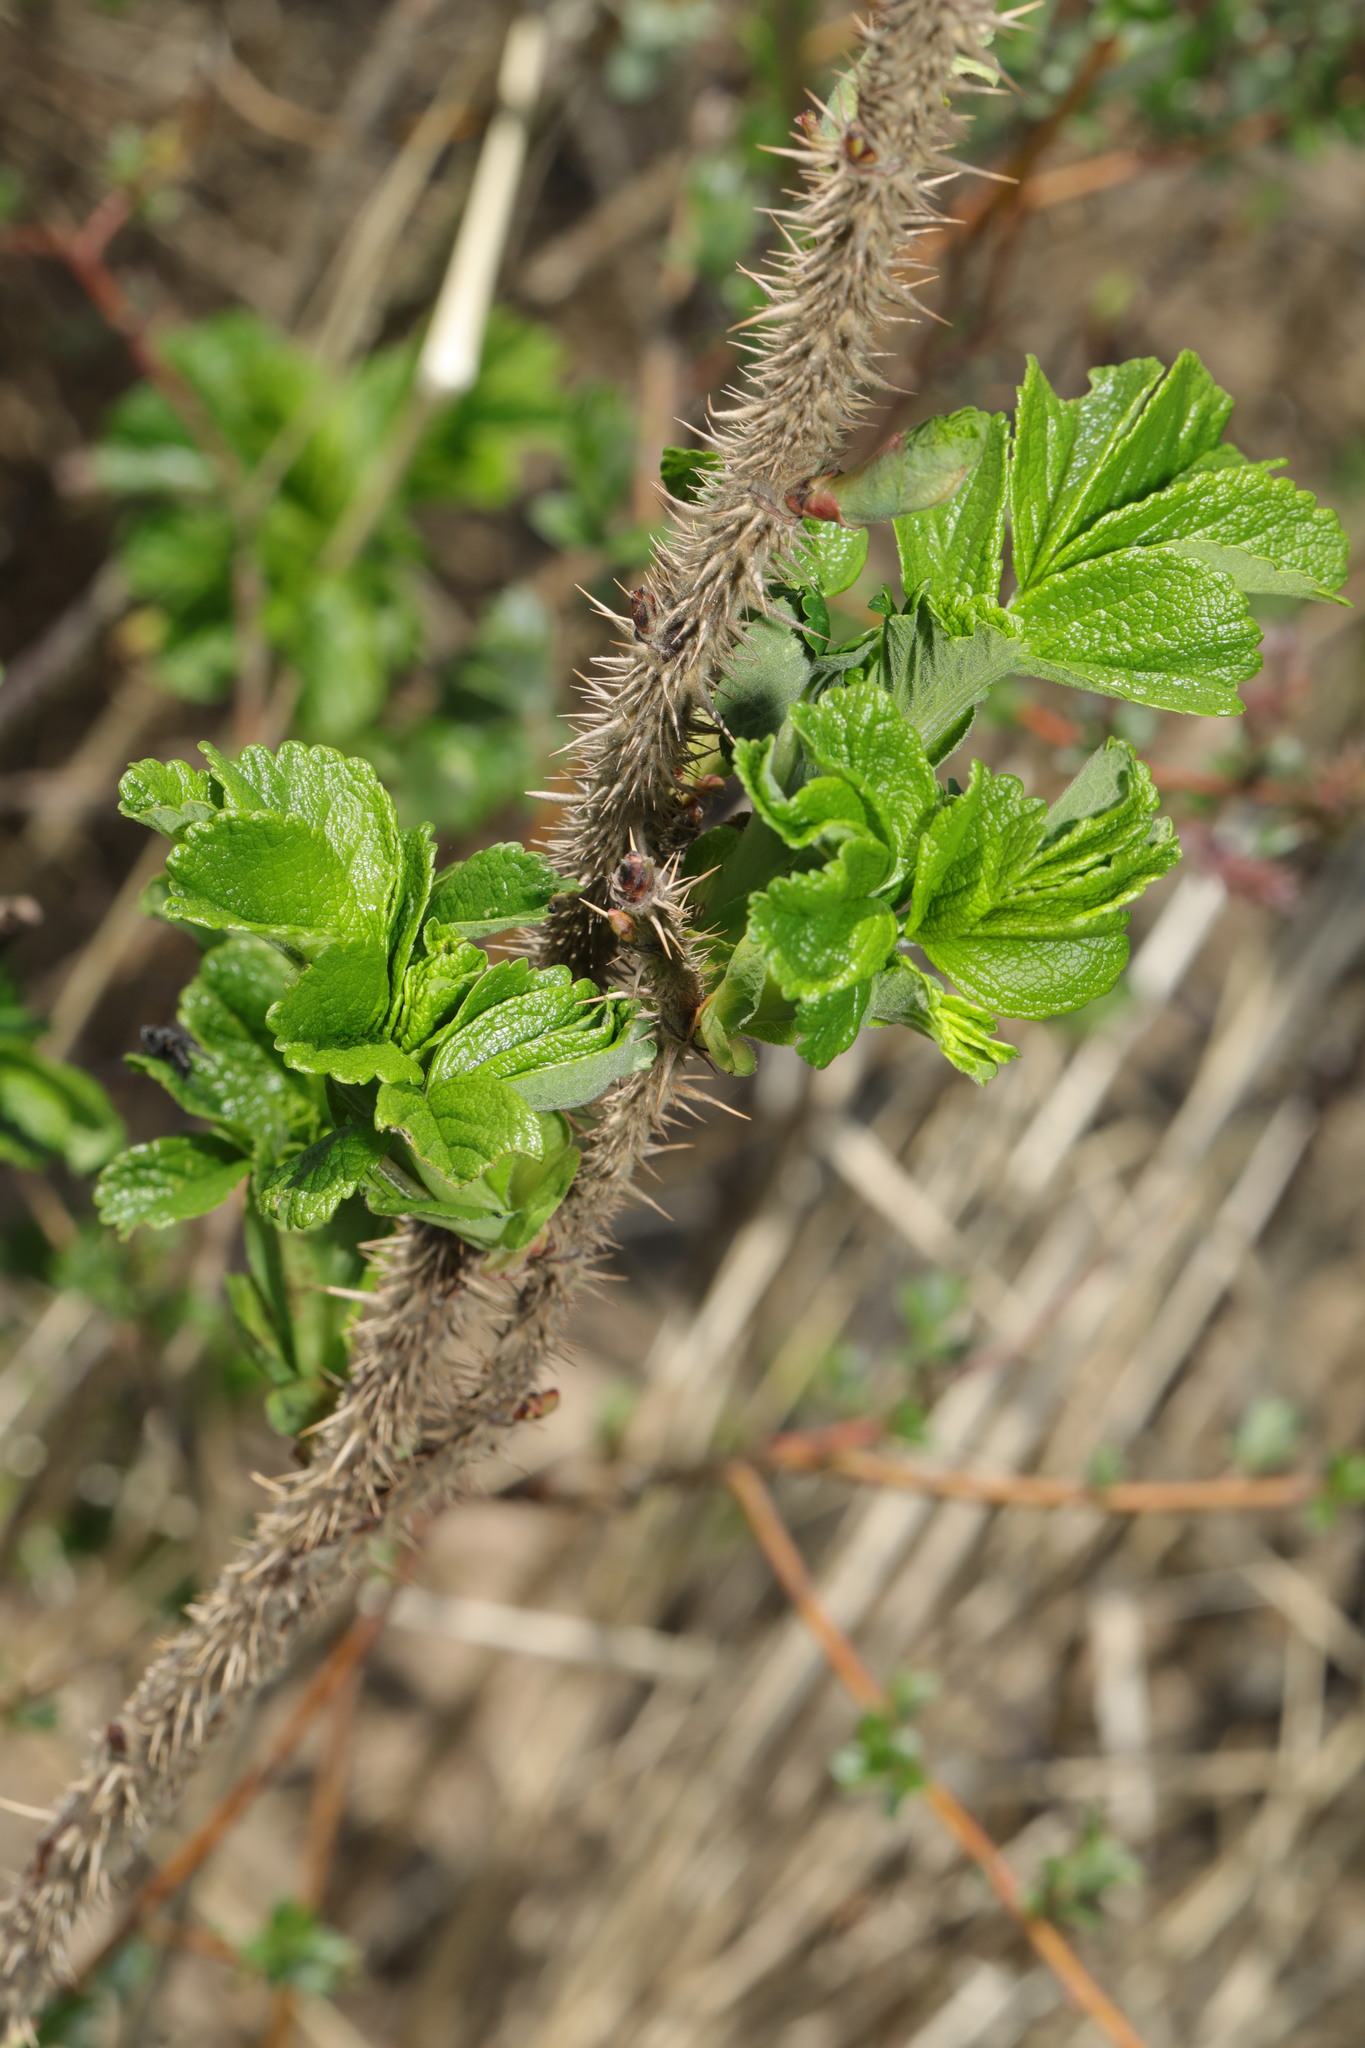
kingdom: Plantae
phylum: Tracheophyta
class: Magnoliopsida
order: Rosales
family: Rosaceae
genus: Rosa
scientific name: Rosa rugosa
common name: Japanese rose
